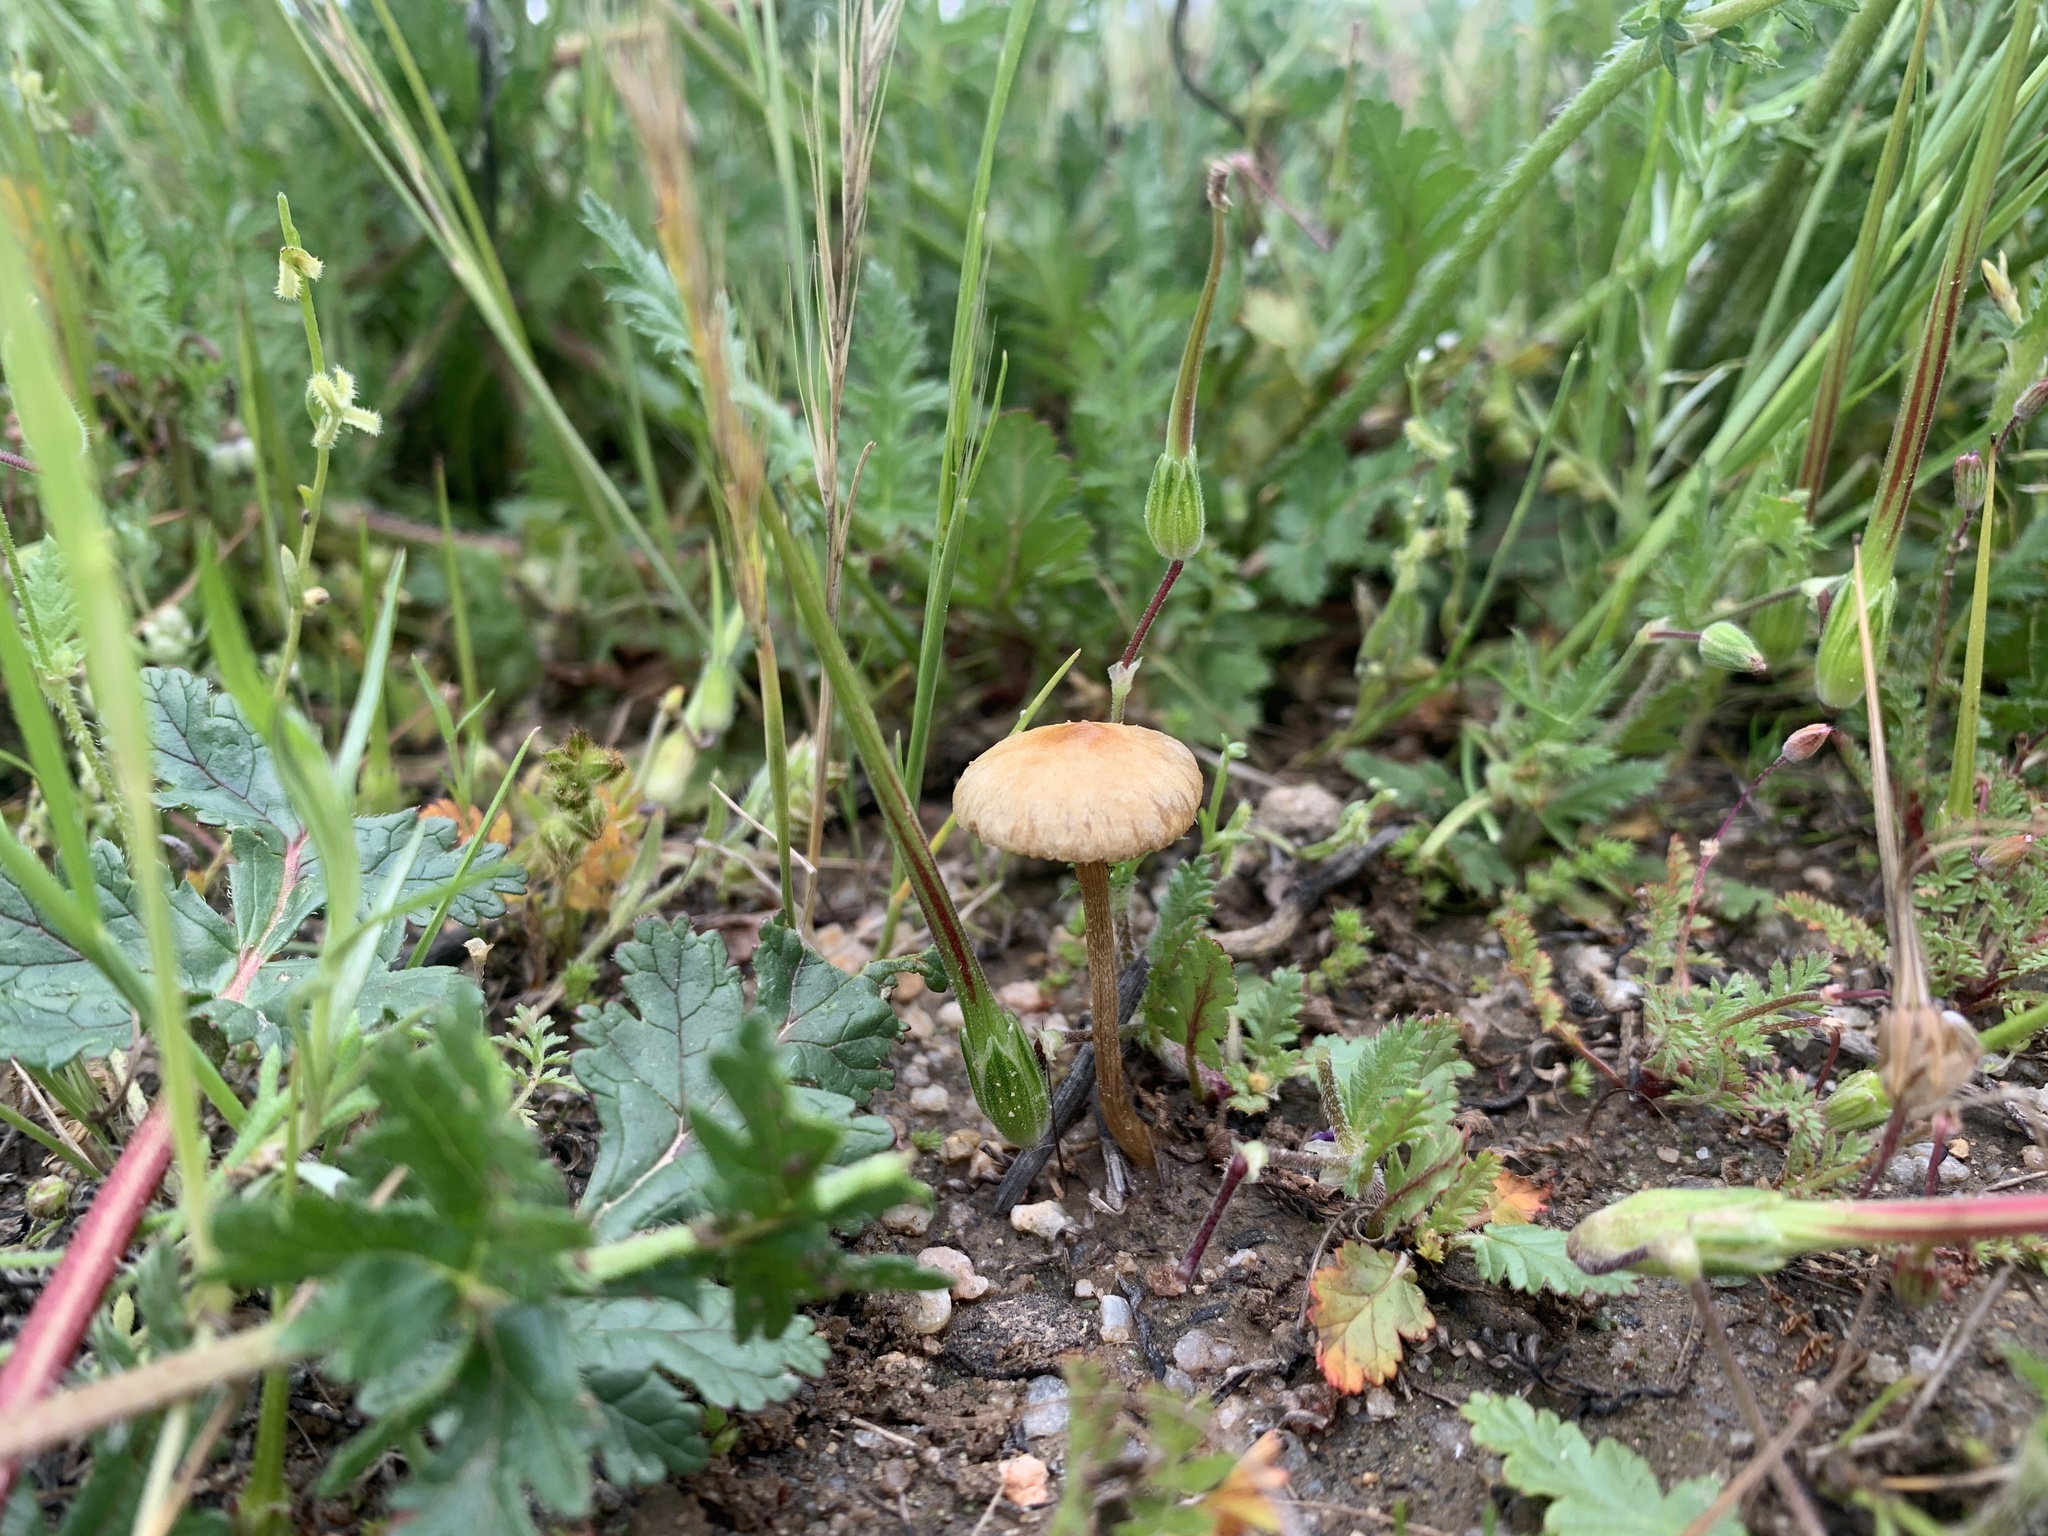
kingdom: Fungi
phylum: Basidiomycota
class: Agaricomycetes
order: Agaricales
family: Strophariaceae
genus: Agrocybe
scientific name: Agrocybe pediades
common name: Common fieldcap
